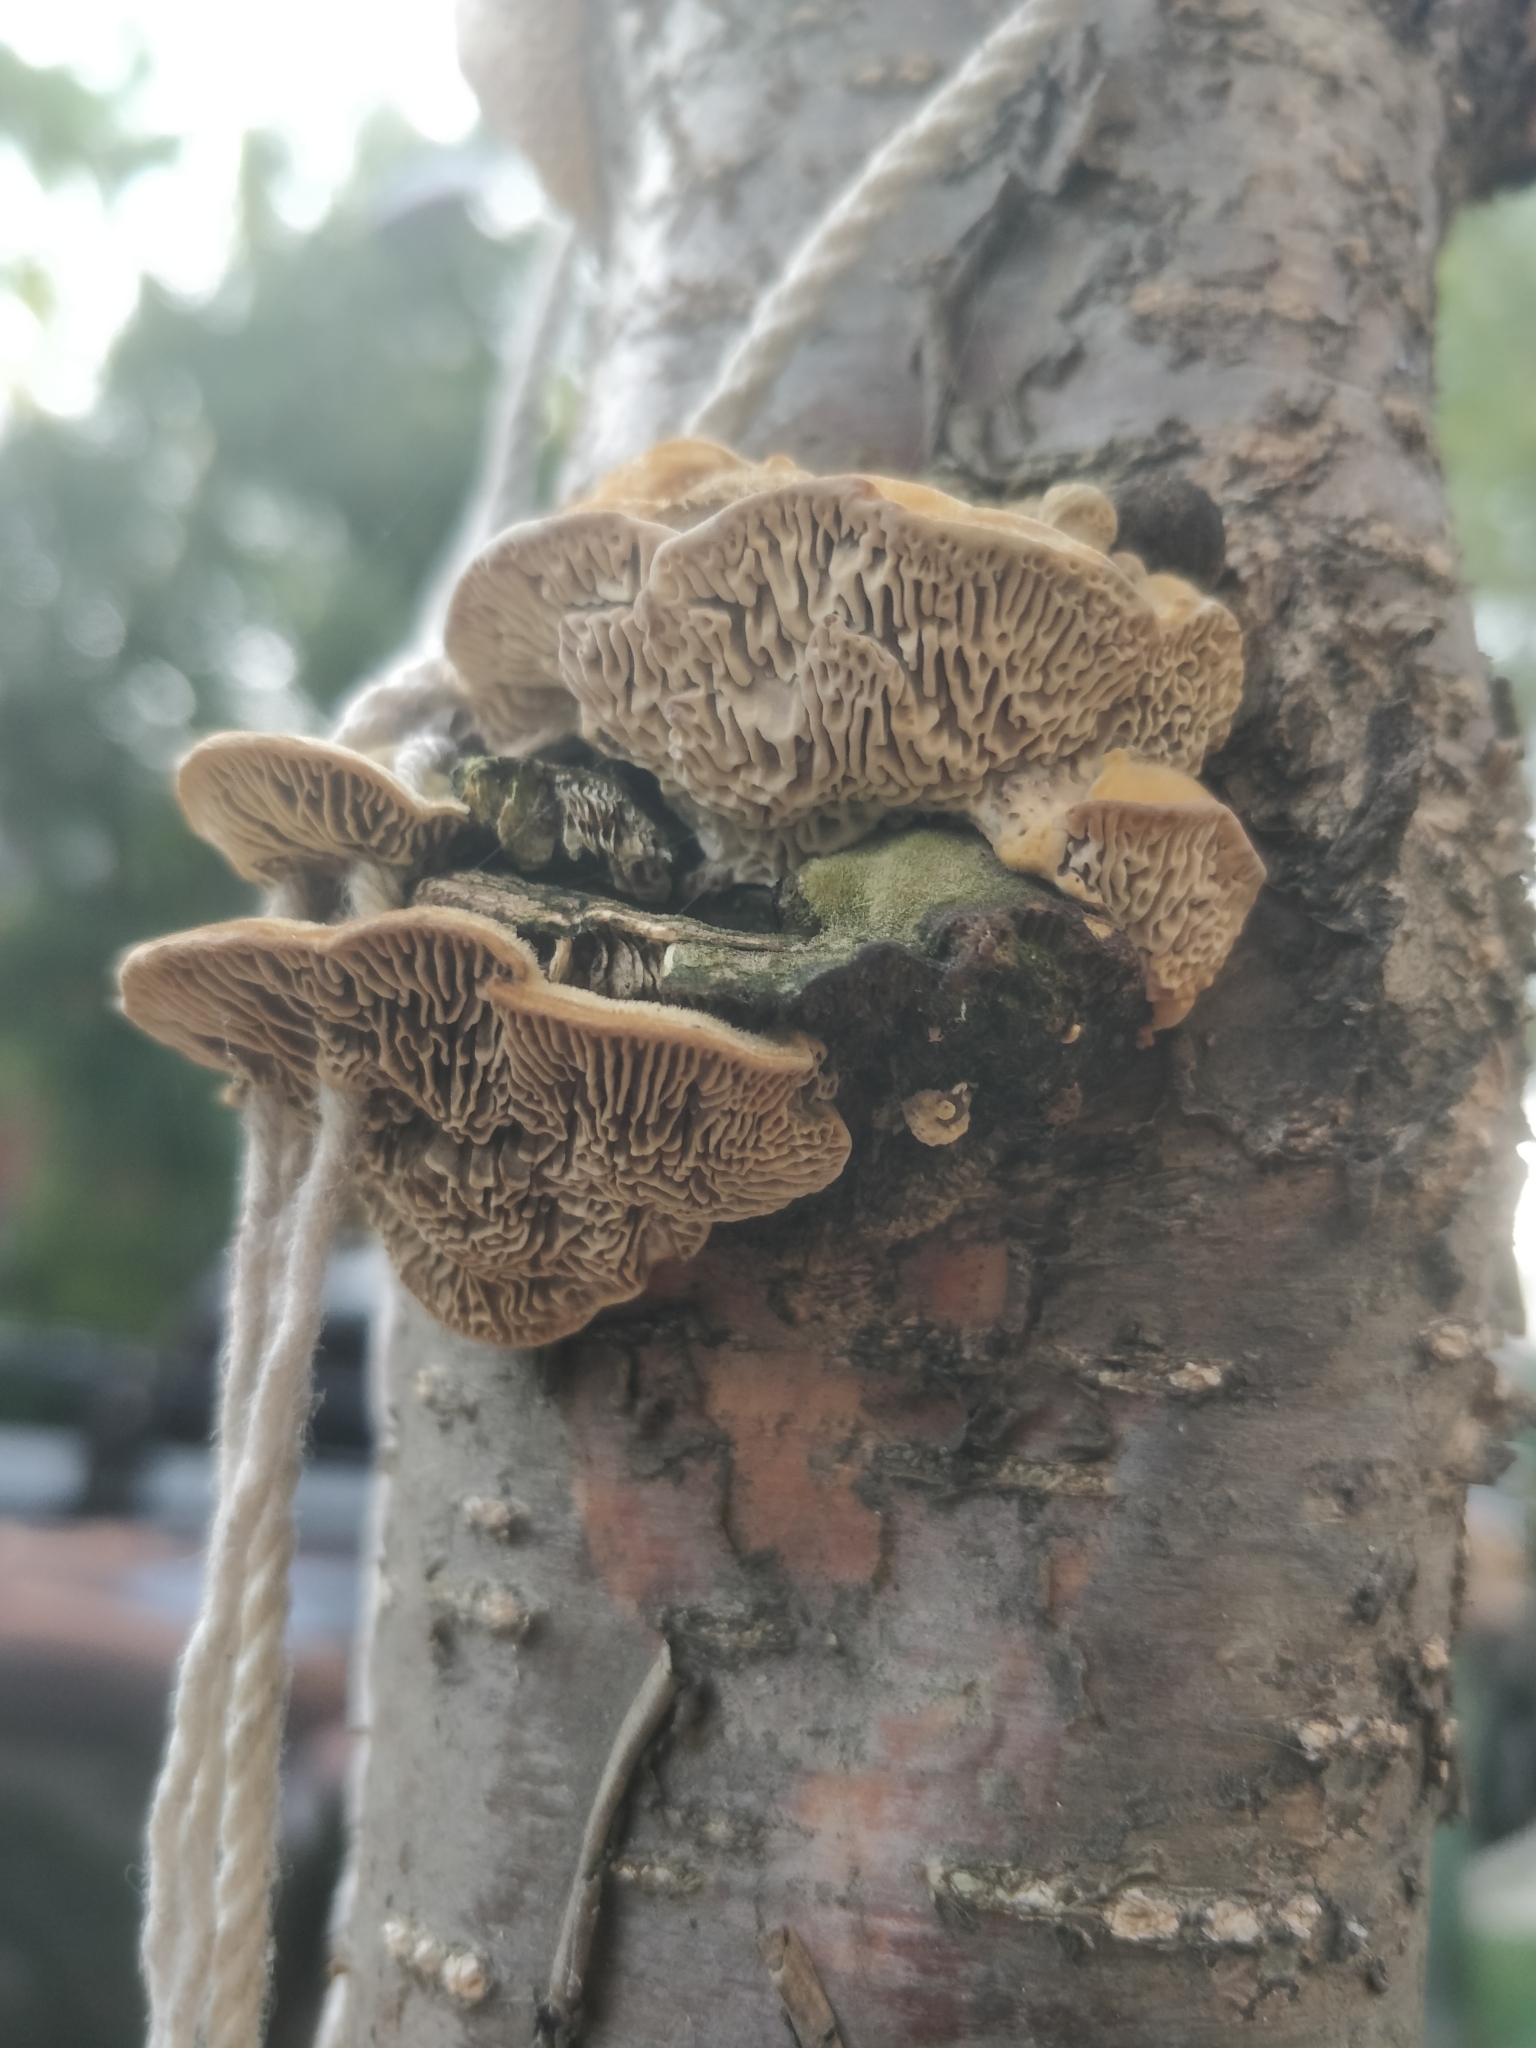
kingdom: Fungi
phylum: Basidiomycota
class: Agaricomycetes
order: Polyporales
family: Fomitopsidaceae
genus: Fomitopsis
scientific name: Fomitopsis
